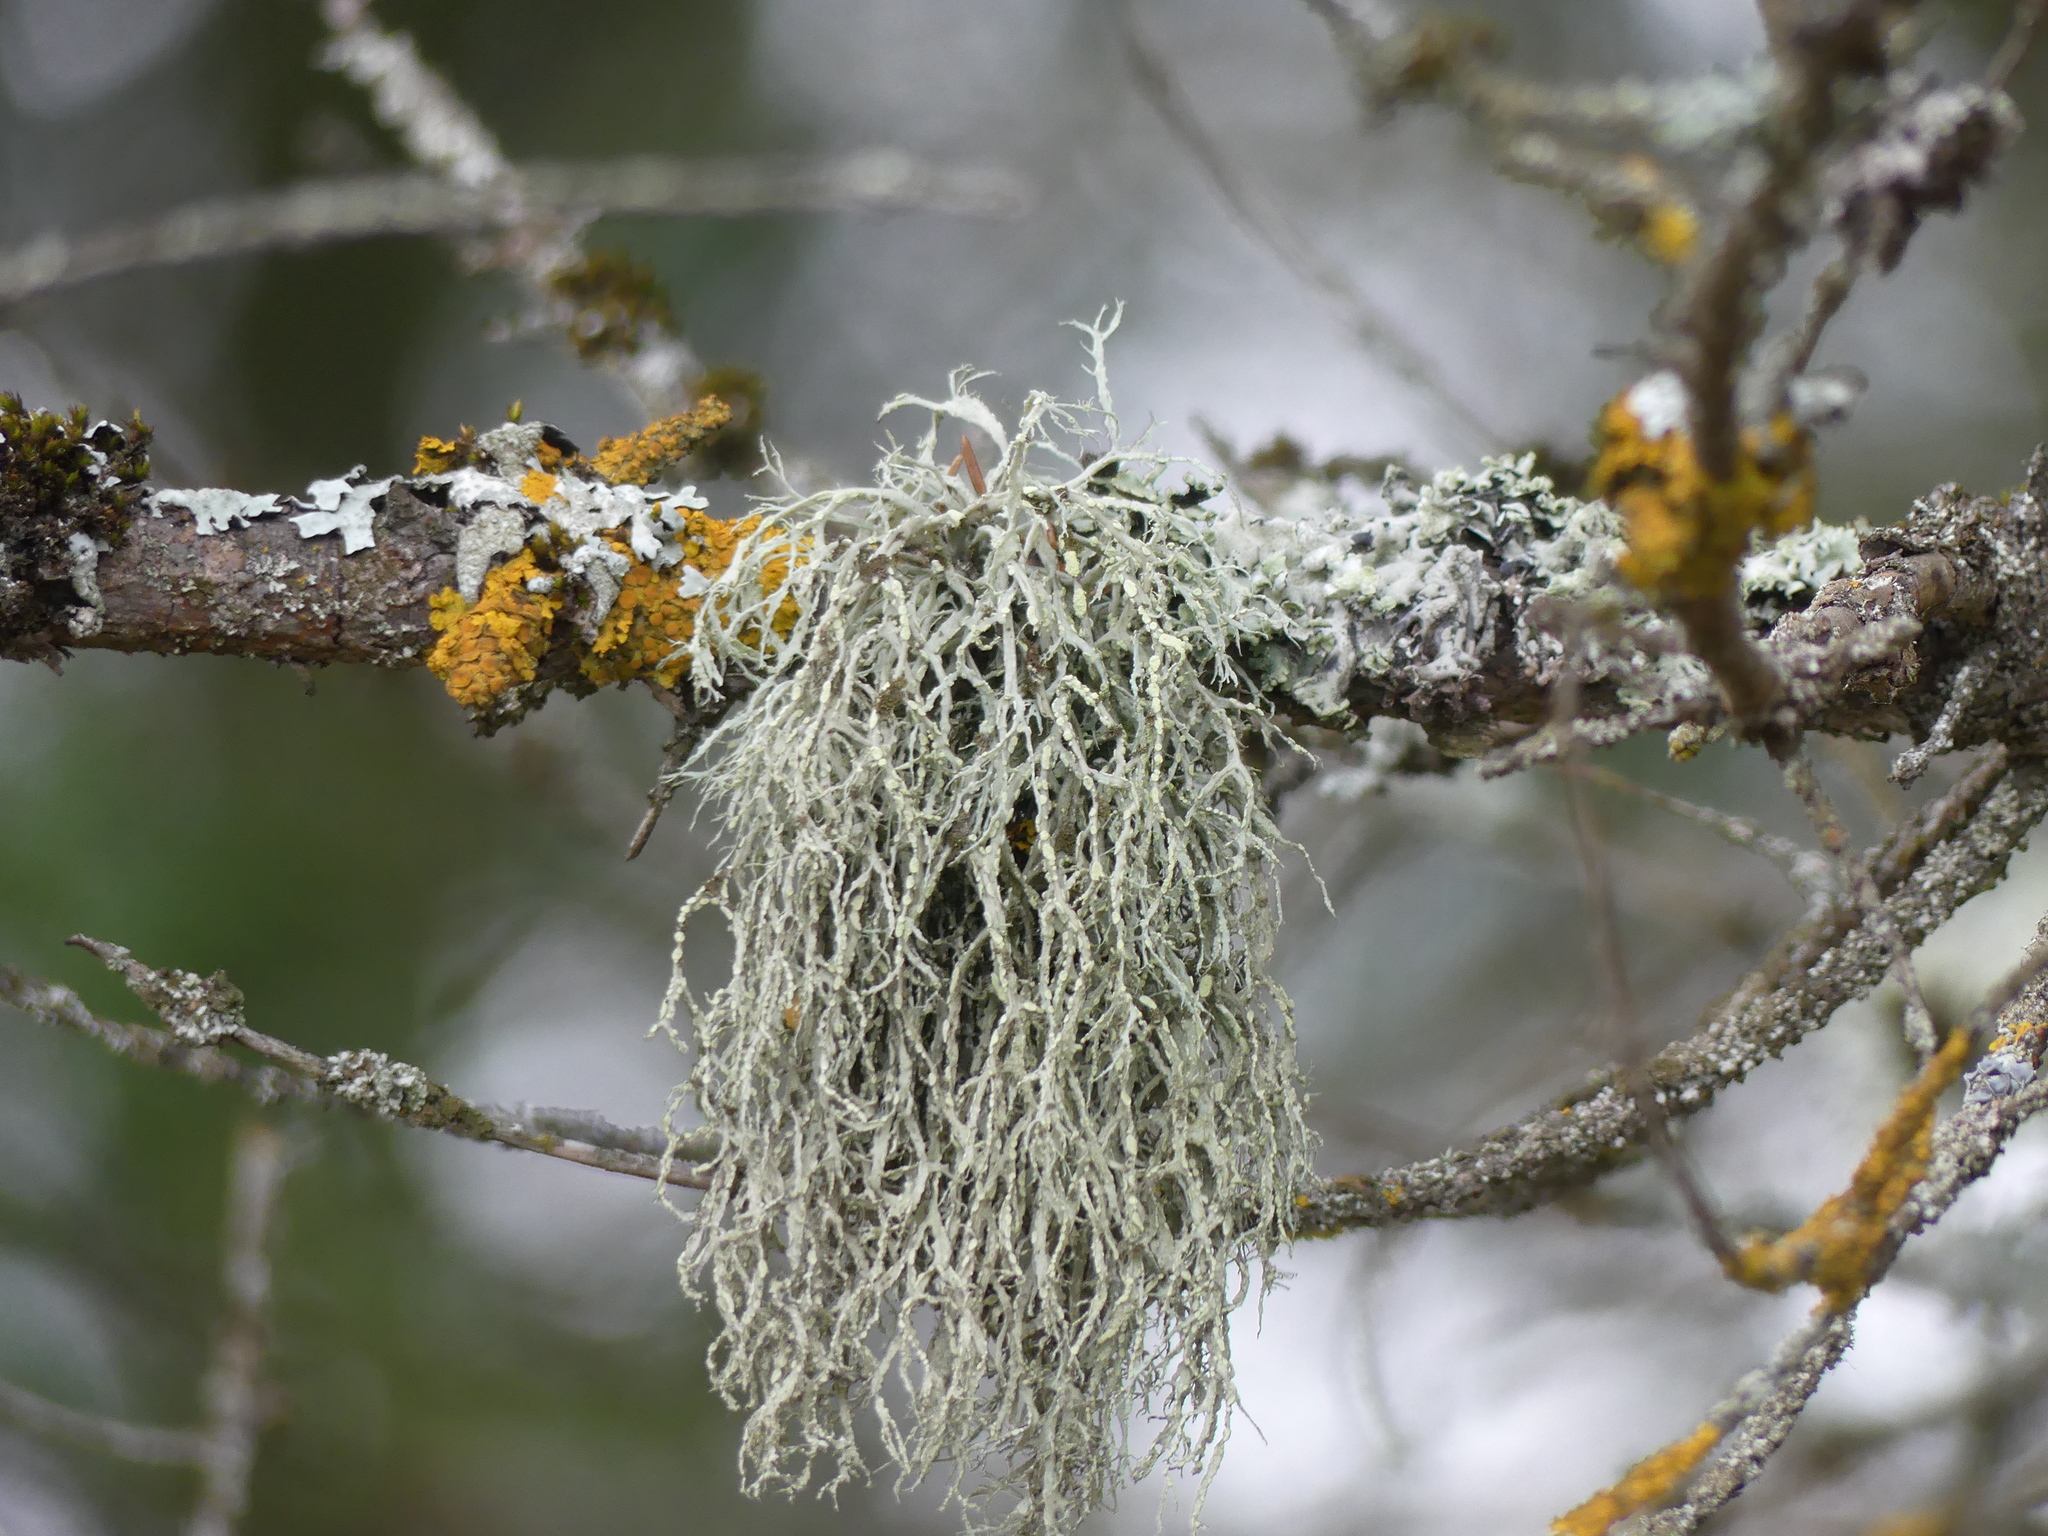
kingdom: Fungi
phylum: Ascomycota
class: Lecanoromycetes
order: Lecanorales
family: Ramalinaceae
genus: Ramalina
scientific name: Ramalina farinacea
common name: Farinose cartilage lichen
